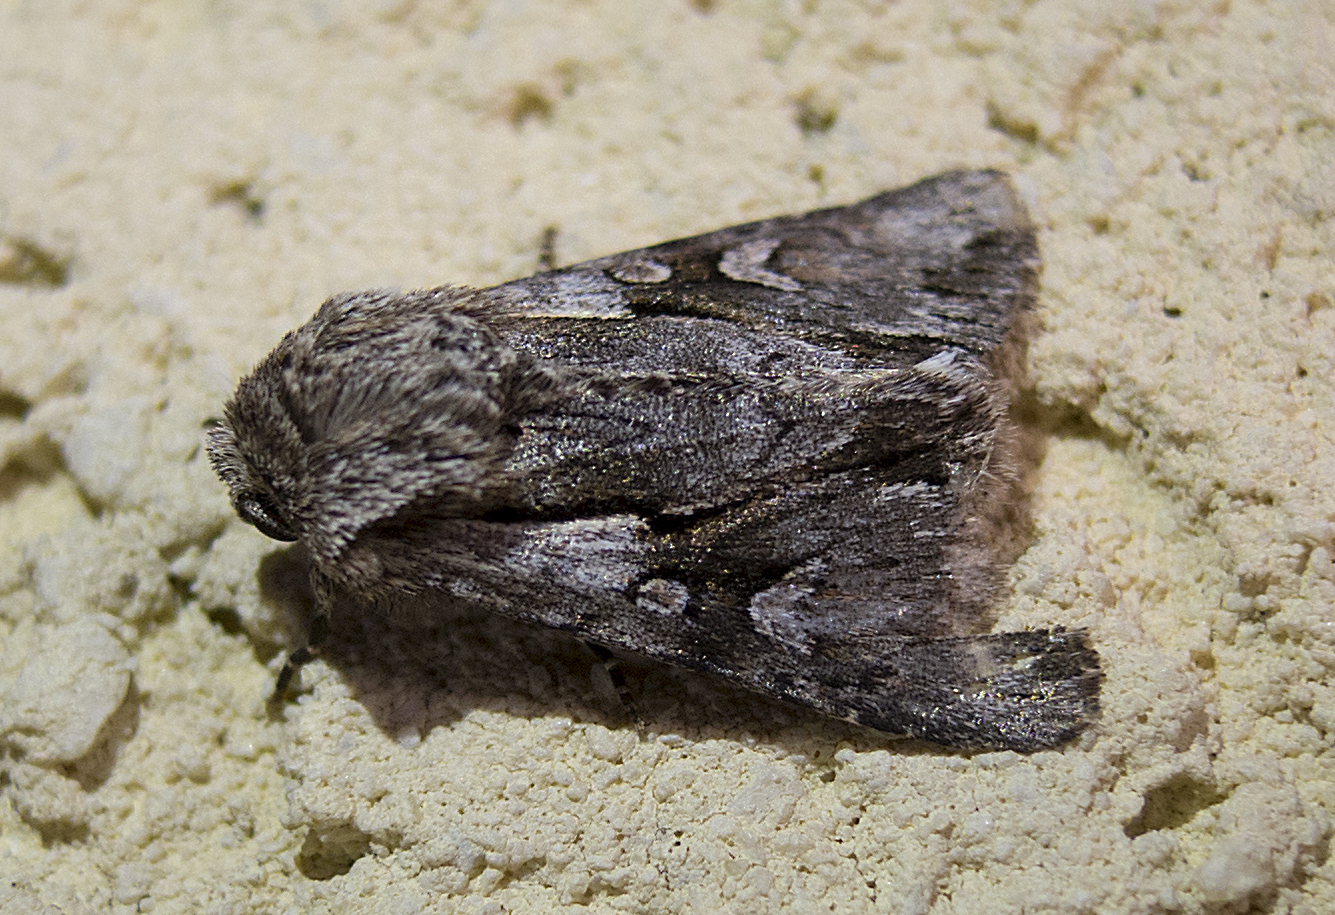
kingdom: Animalia
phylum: Arthropoda
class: Insecta
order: Lepidoptera
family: Noctuidae
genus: Chloantha
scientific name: Chloantha hyperici
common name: Pale-shouldered cloud
